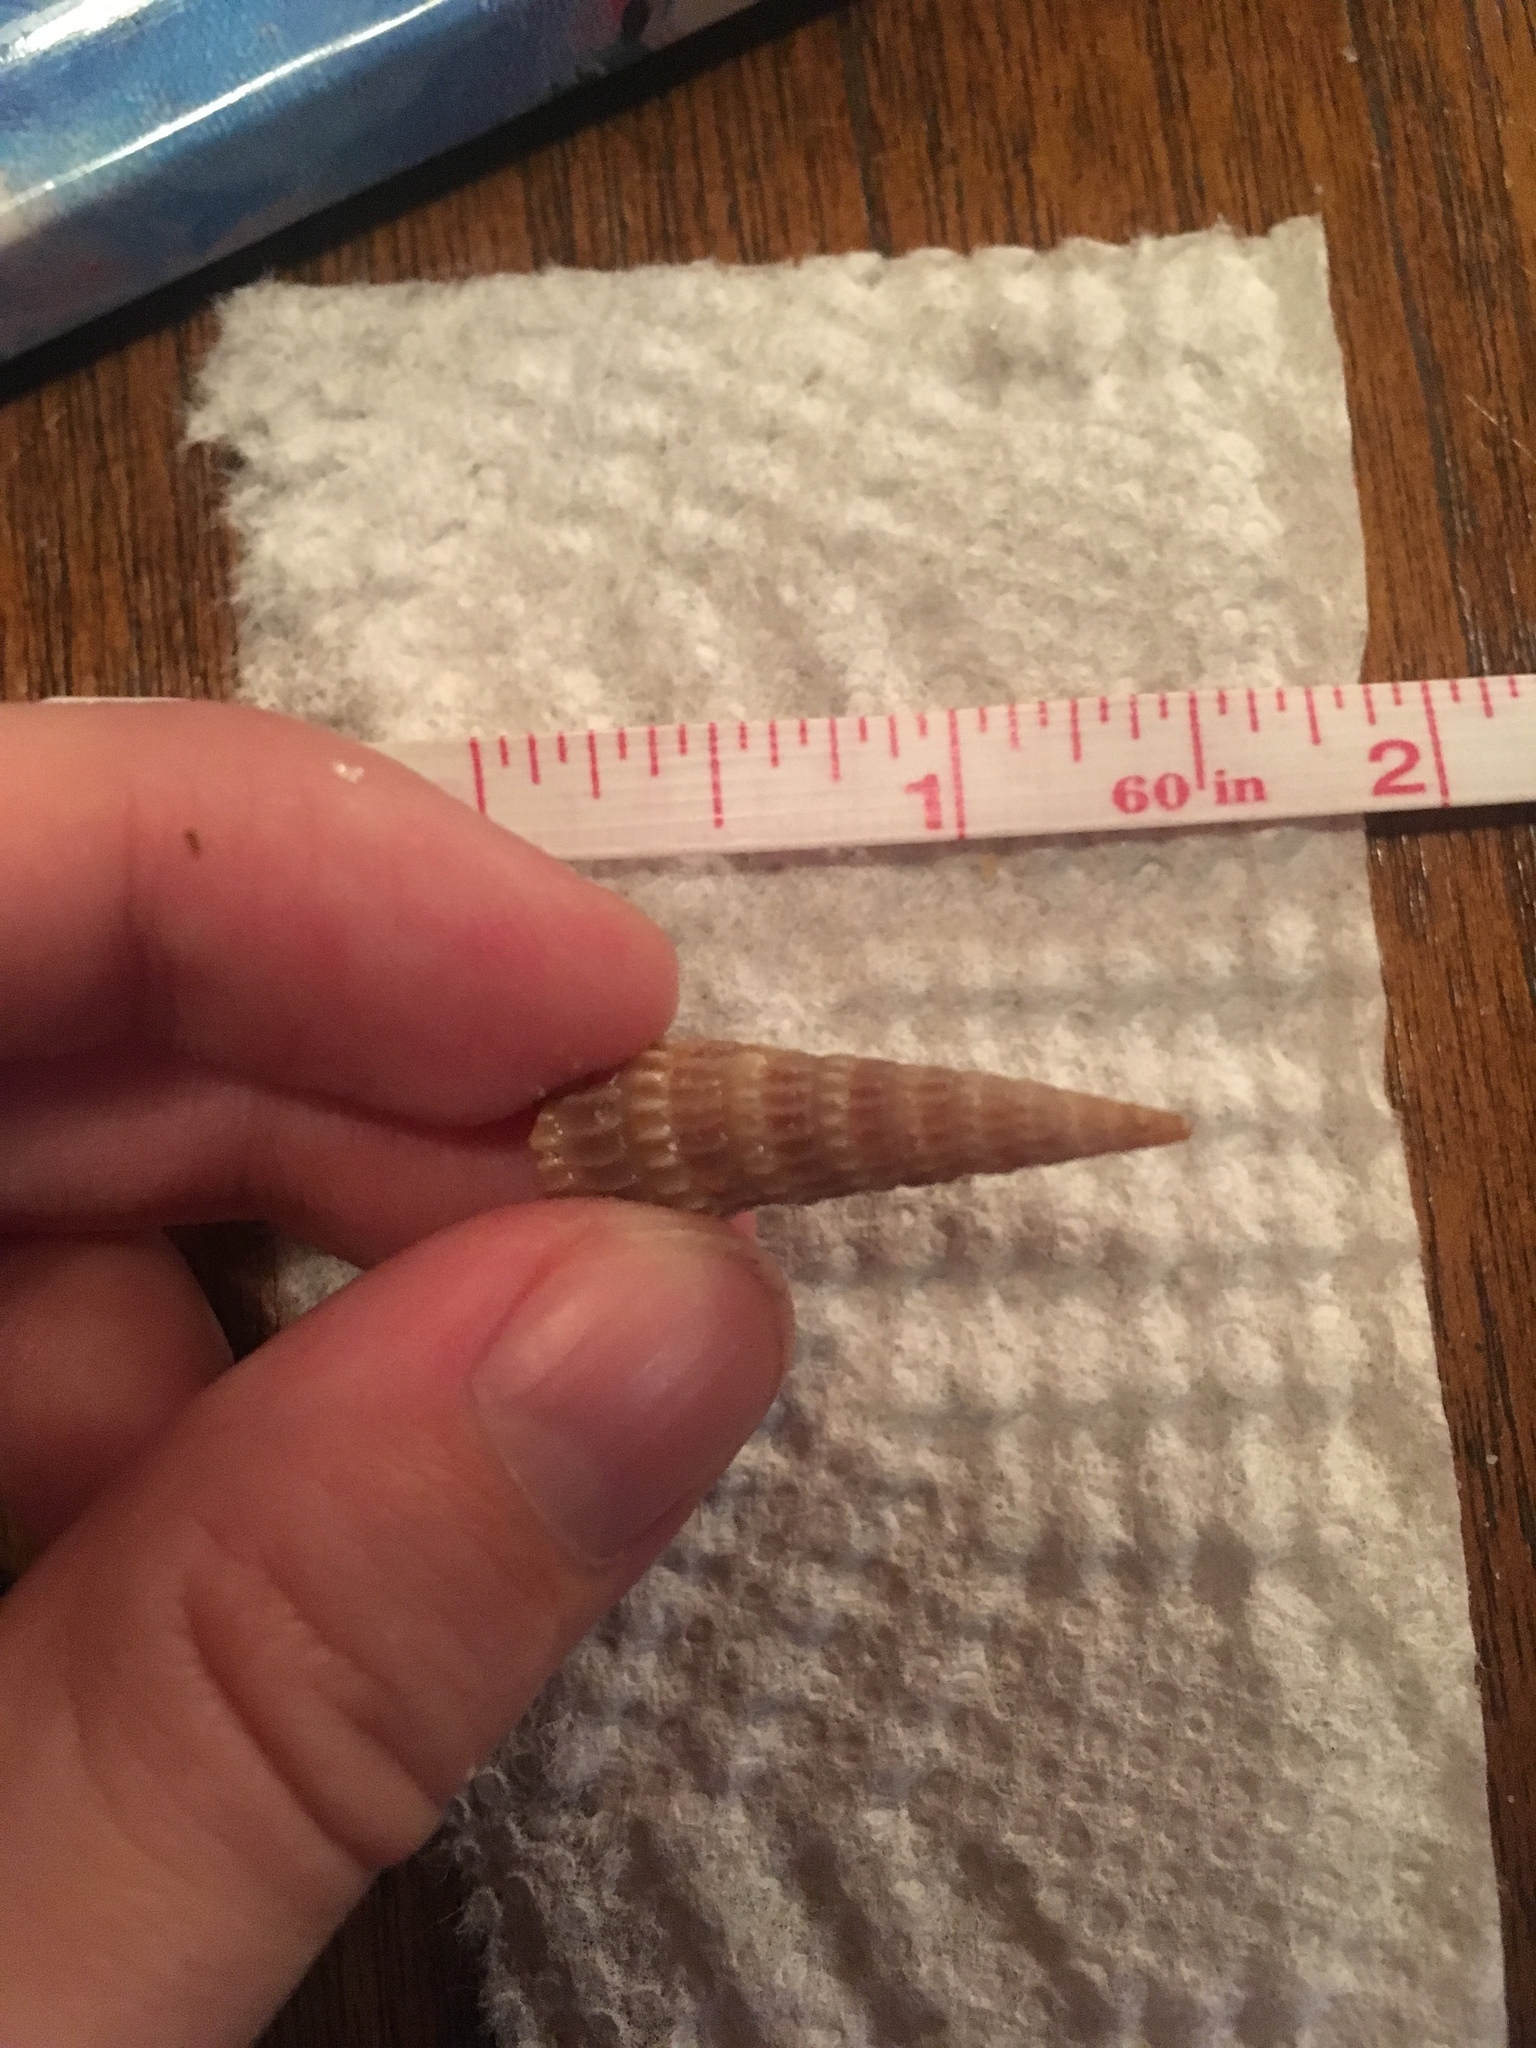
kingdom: Animalia
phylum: Mollusca
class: Gastropoda
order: Neogastropoda
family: Terebridae
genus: Neoterebra
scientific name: Neoterebra dislocata
